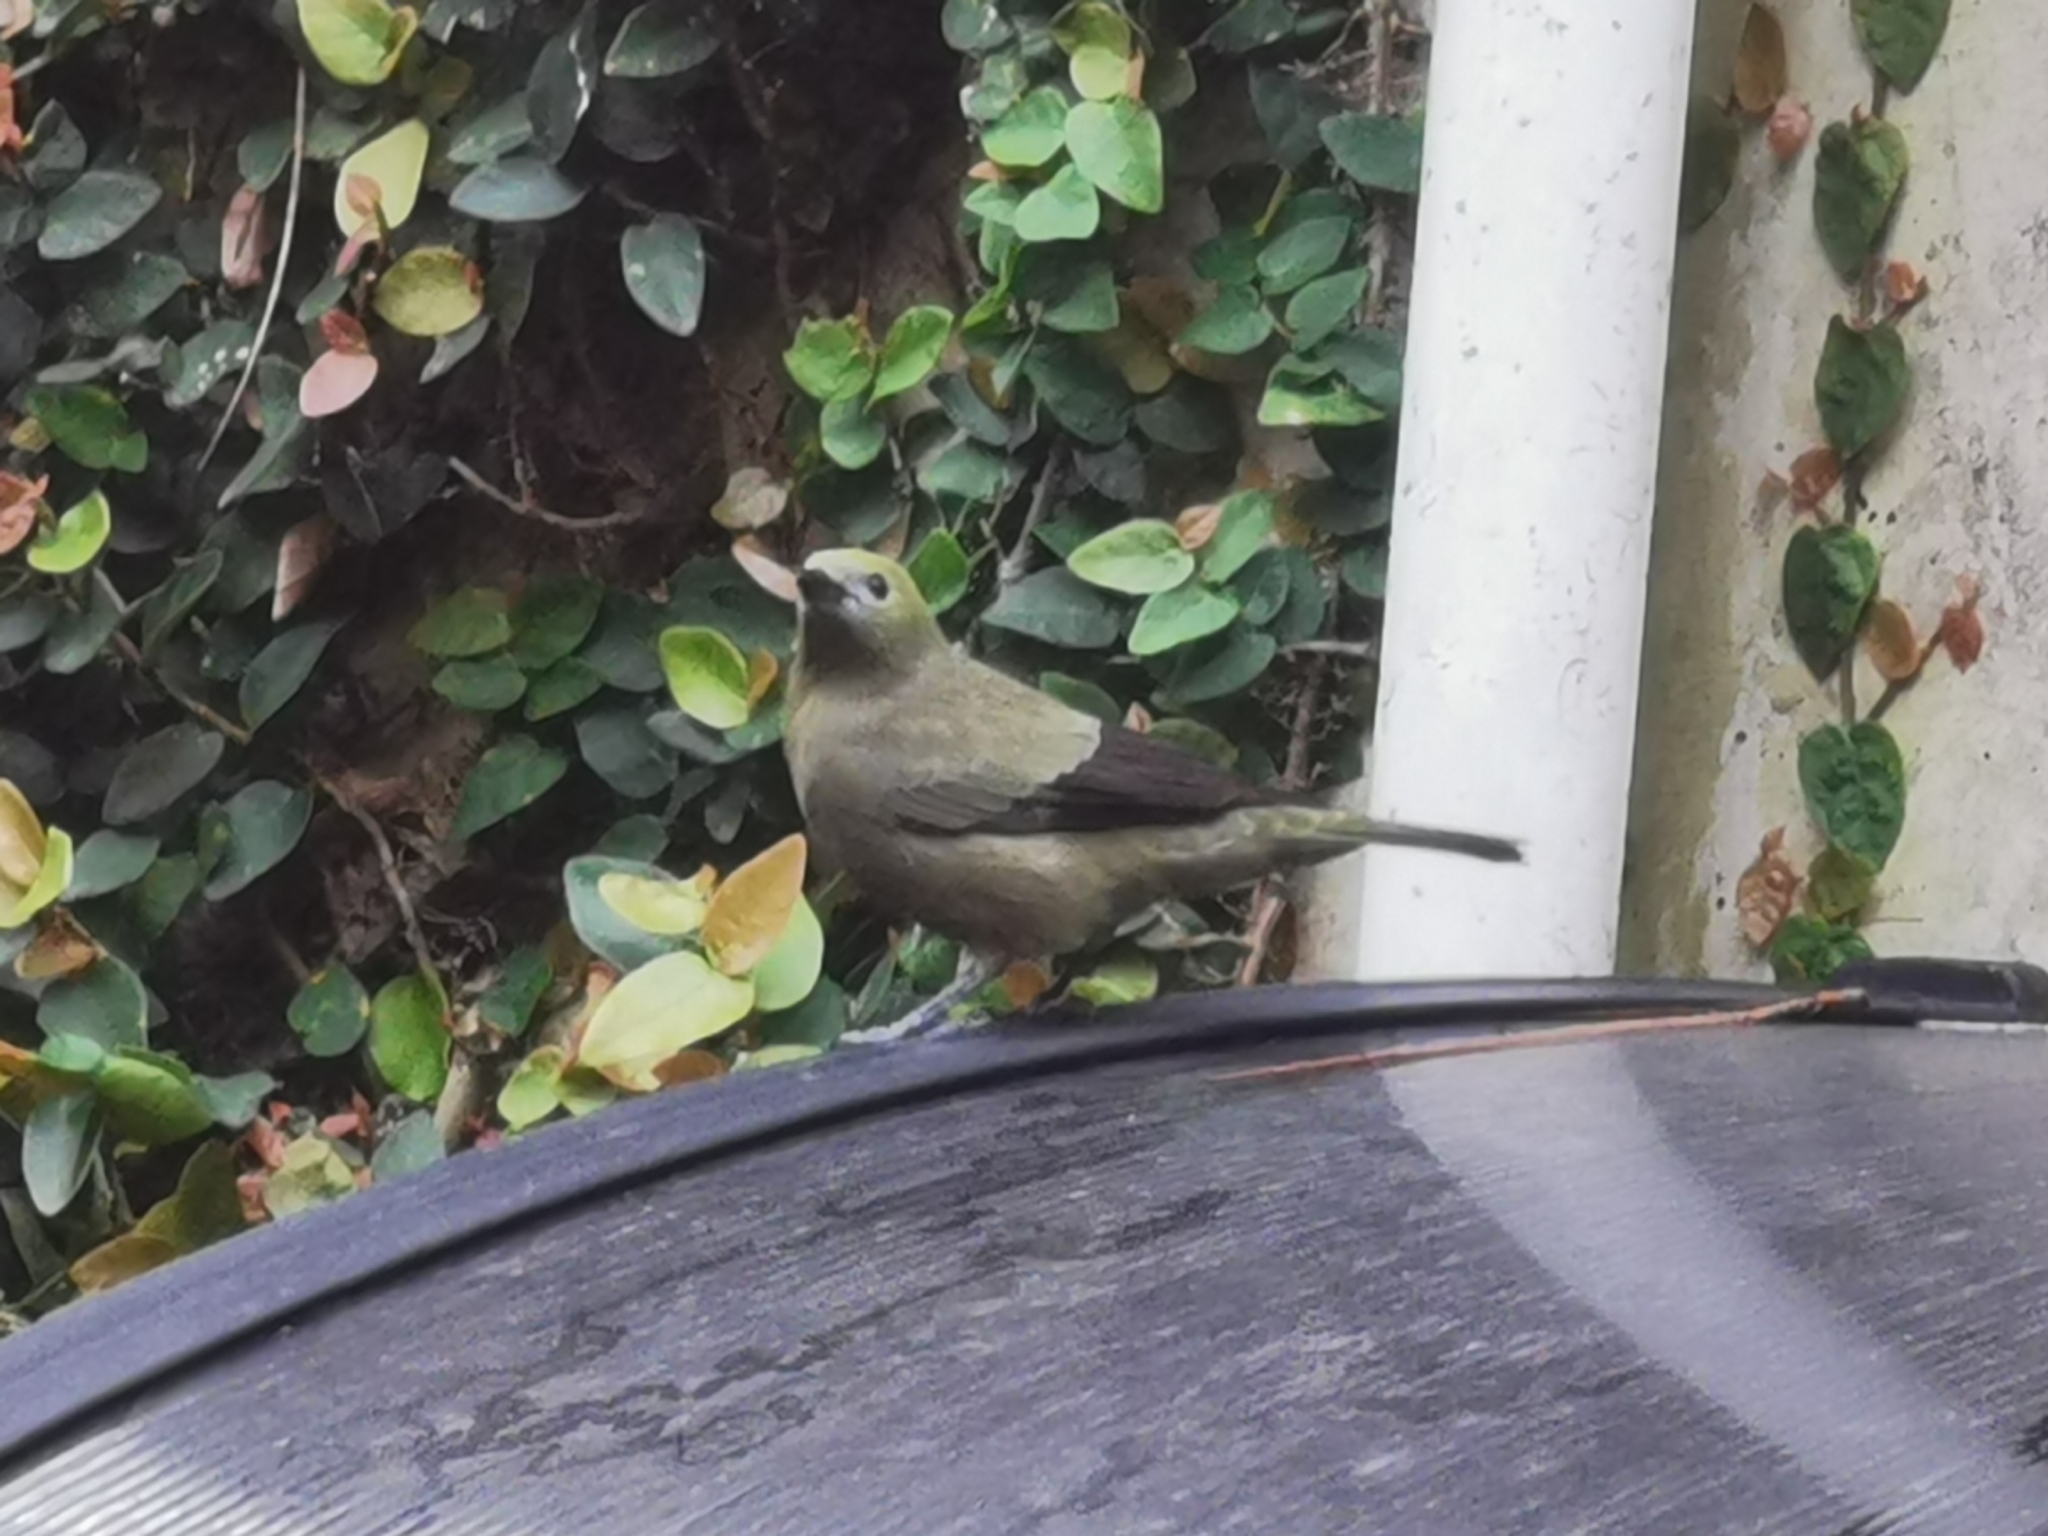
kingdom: Animalia
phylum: Chordata
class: Aves
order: Passeriformes
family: Thraupidae
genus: Thraupis
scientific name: Thraupis palmarum
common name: Palm tanager
